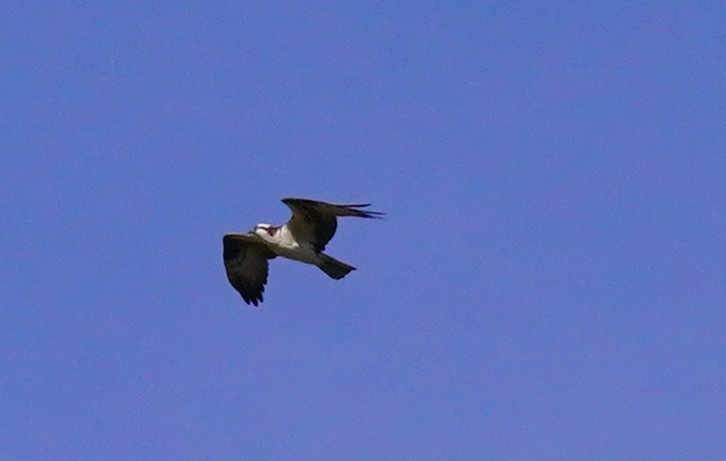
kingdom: Animalia
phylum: Chordata
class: Aves
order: Accipitriformes
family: Pandionidae
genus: Pandion
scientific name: Pandion haliaetus
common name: Osprey
